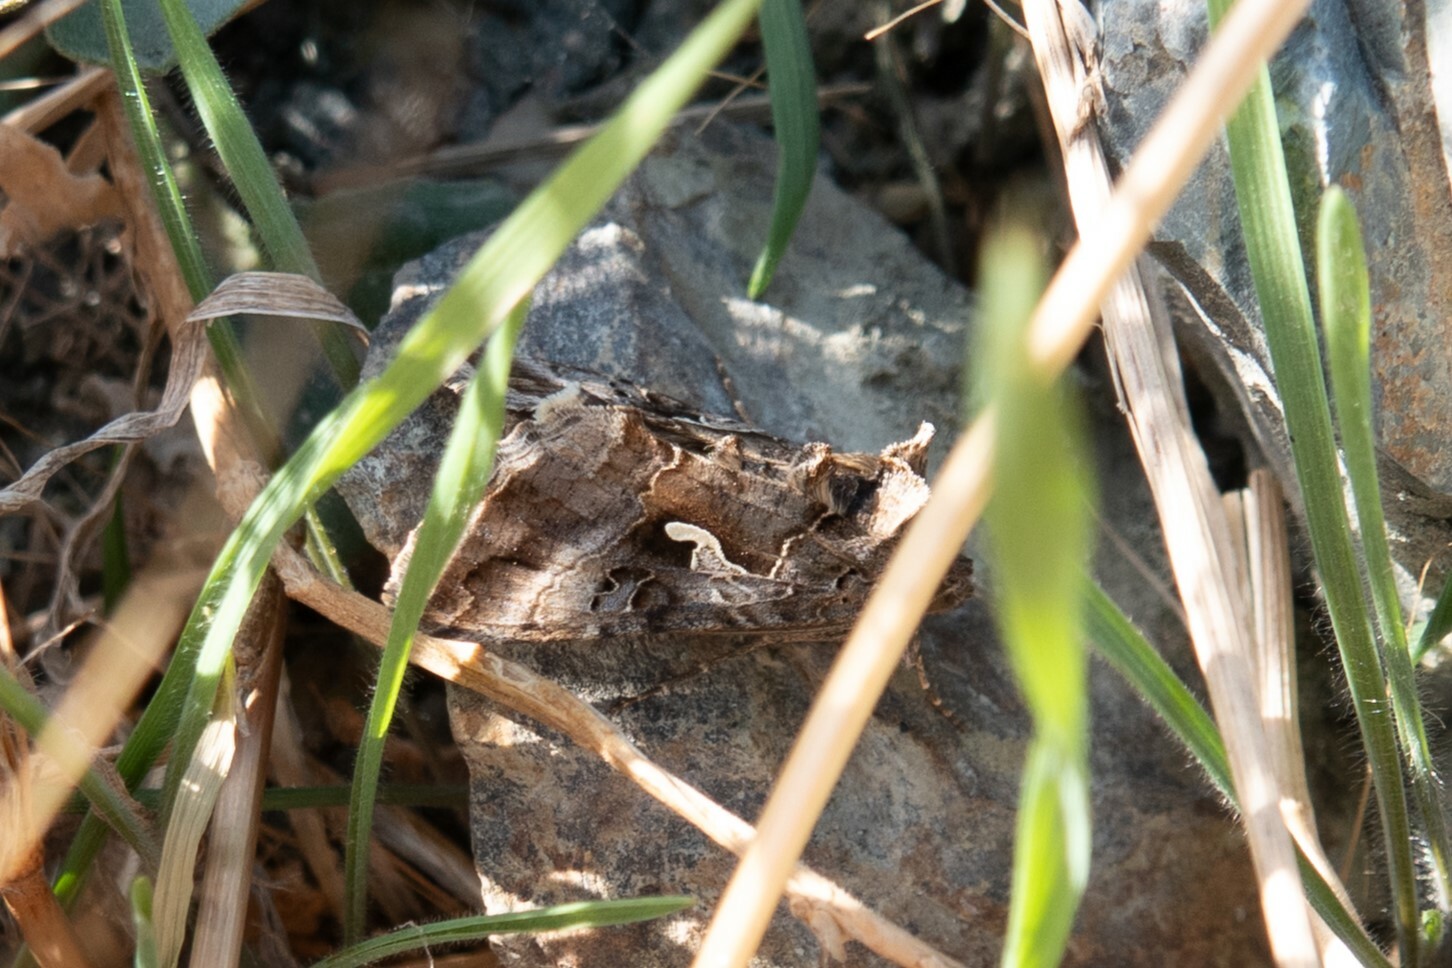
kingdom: Animalia
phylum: Arthropoda
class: Insecta
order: Lepidoptera
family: Noctuidae
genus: Autographa
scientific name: Autographa gamma
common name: Silver y
